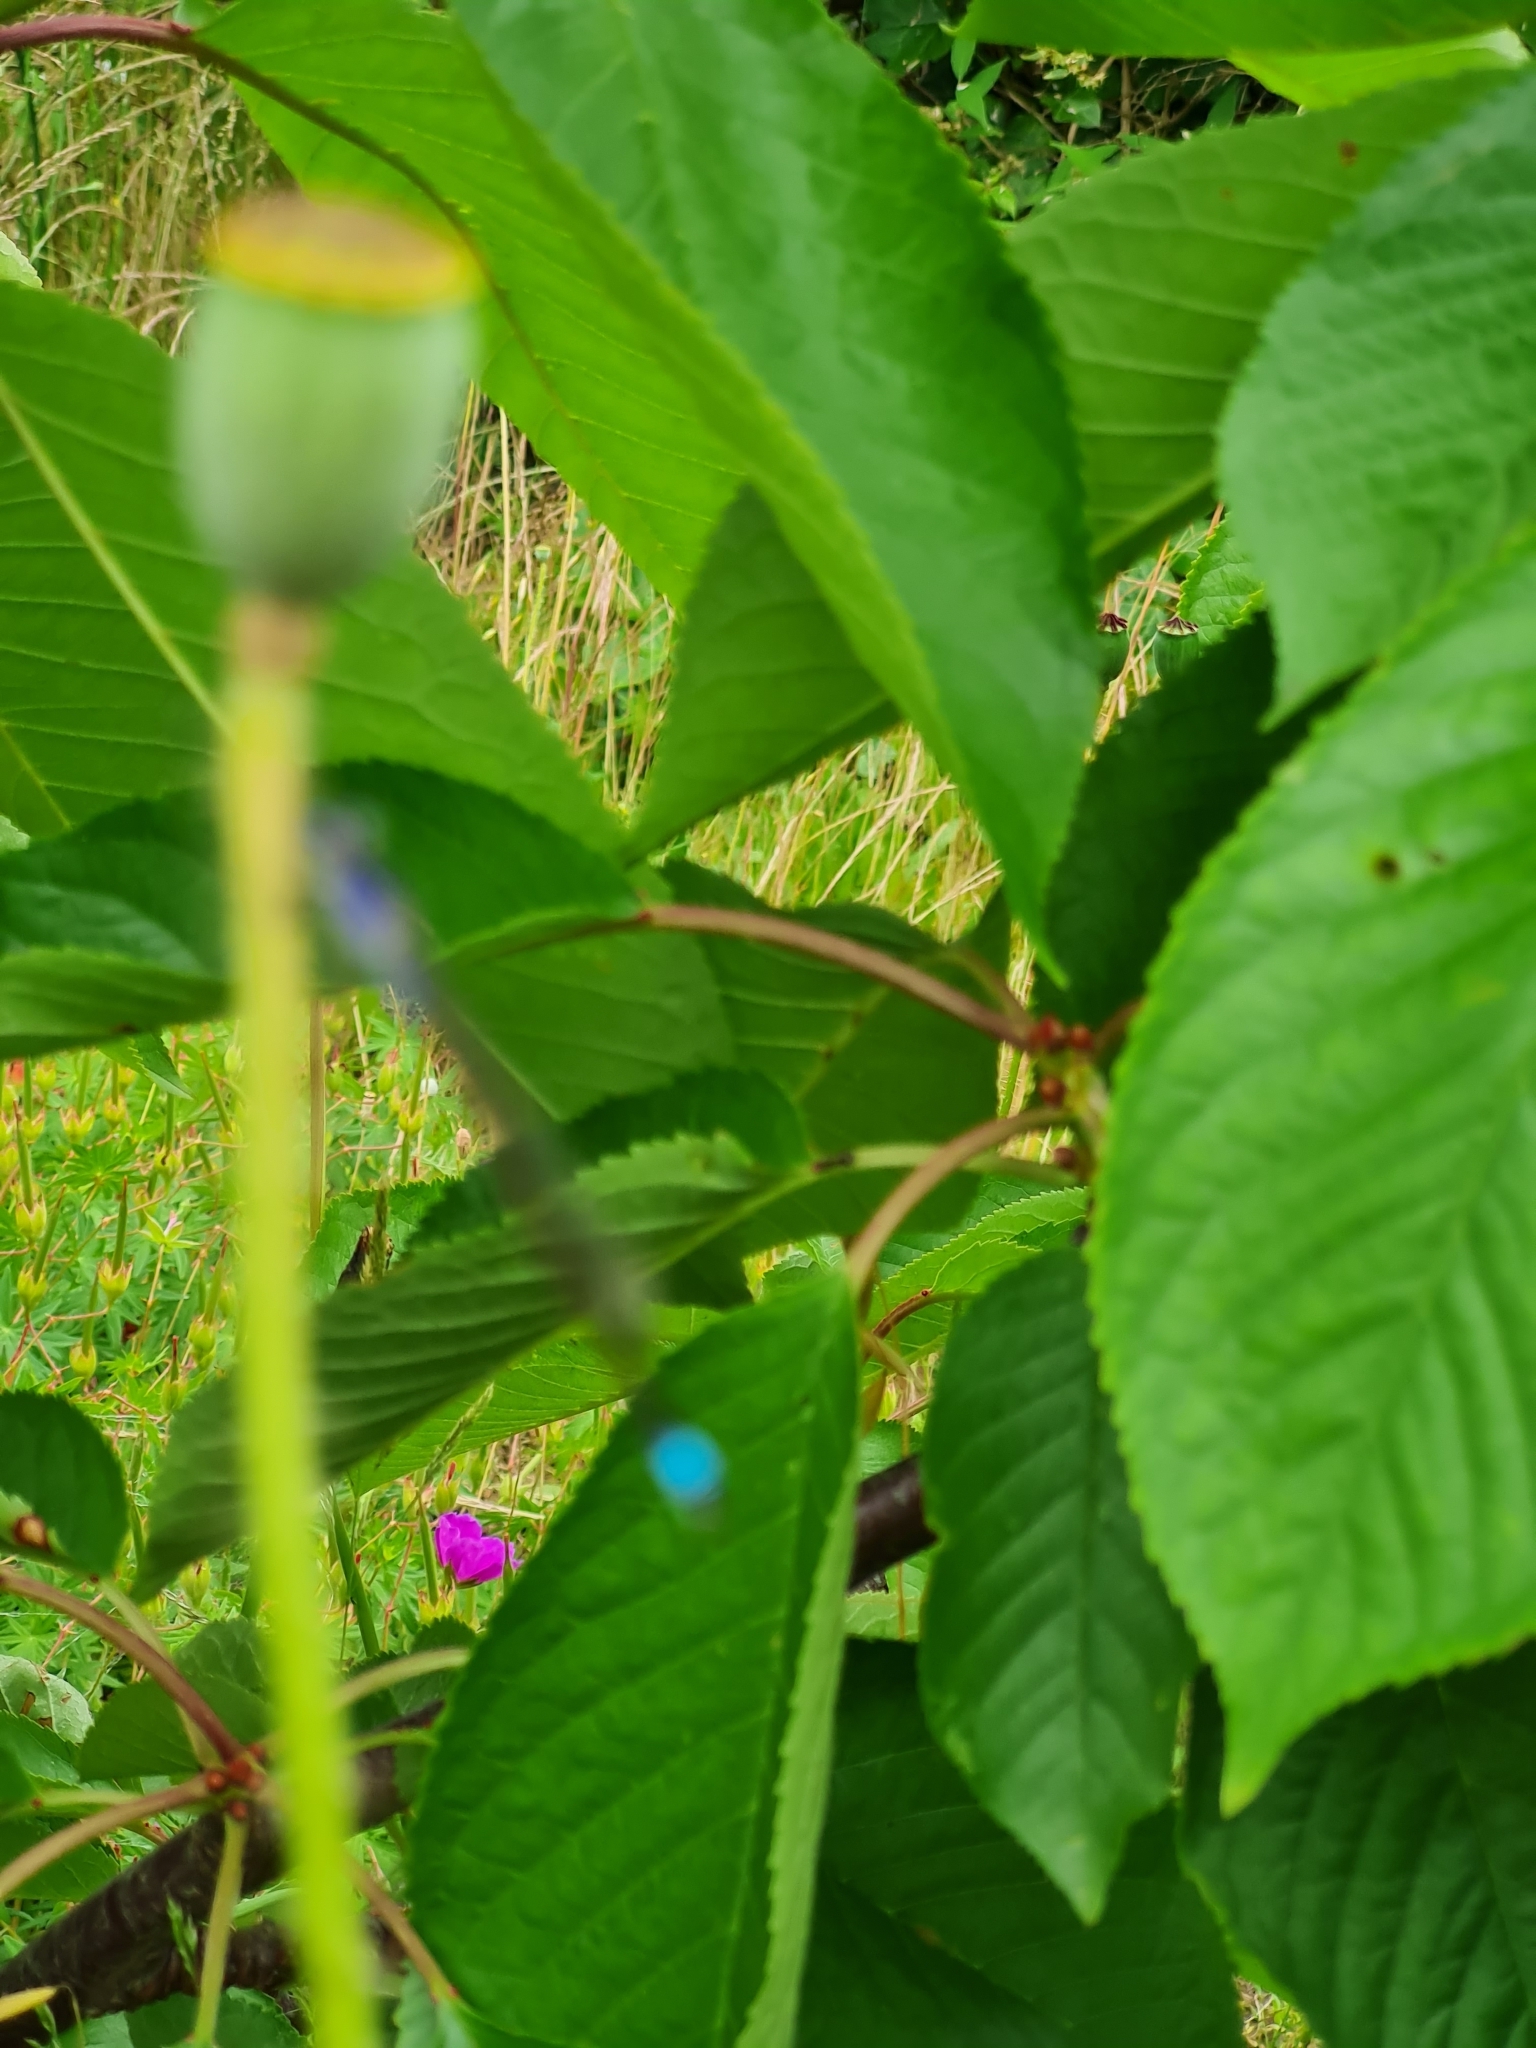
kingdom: Animalia
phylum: Arthropoda
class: Insecta
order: Odonata
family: Coenagrionidae
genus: Ischnura
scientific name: Ischnura elegans
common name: Blue-tailed damselfly
